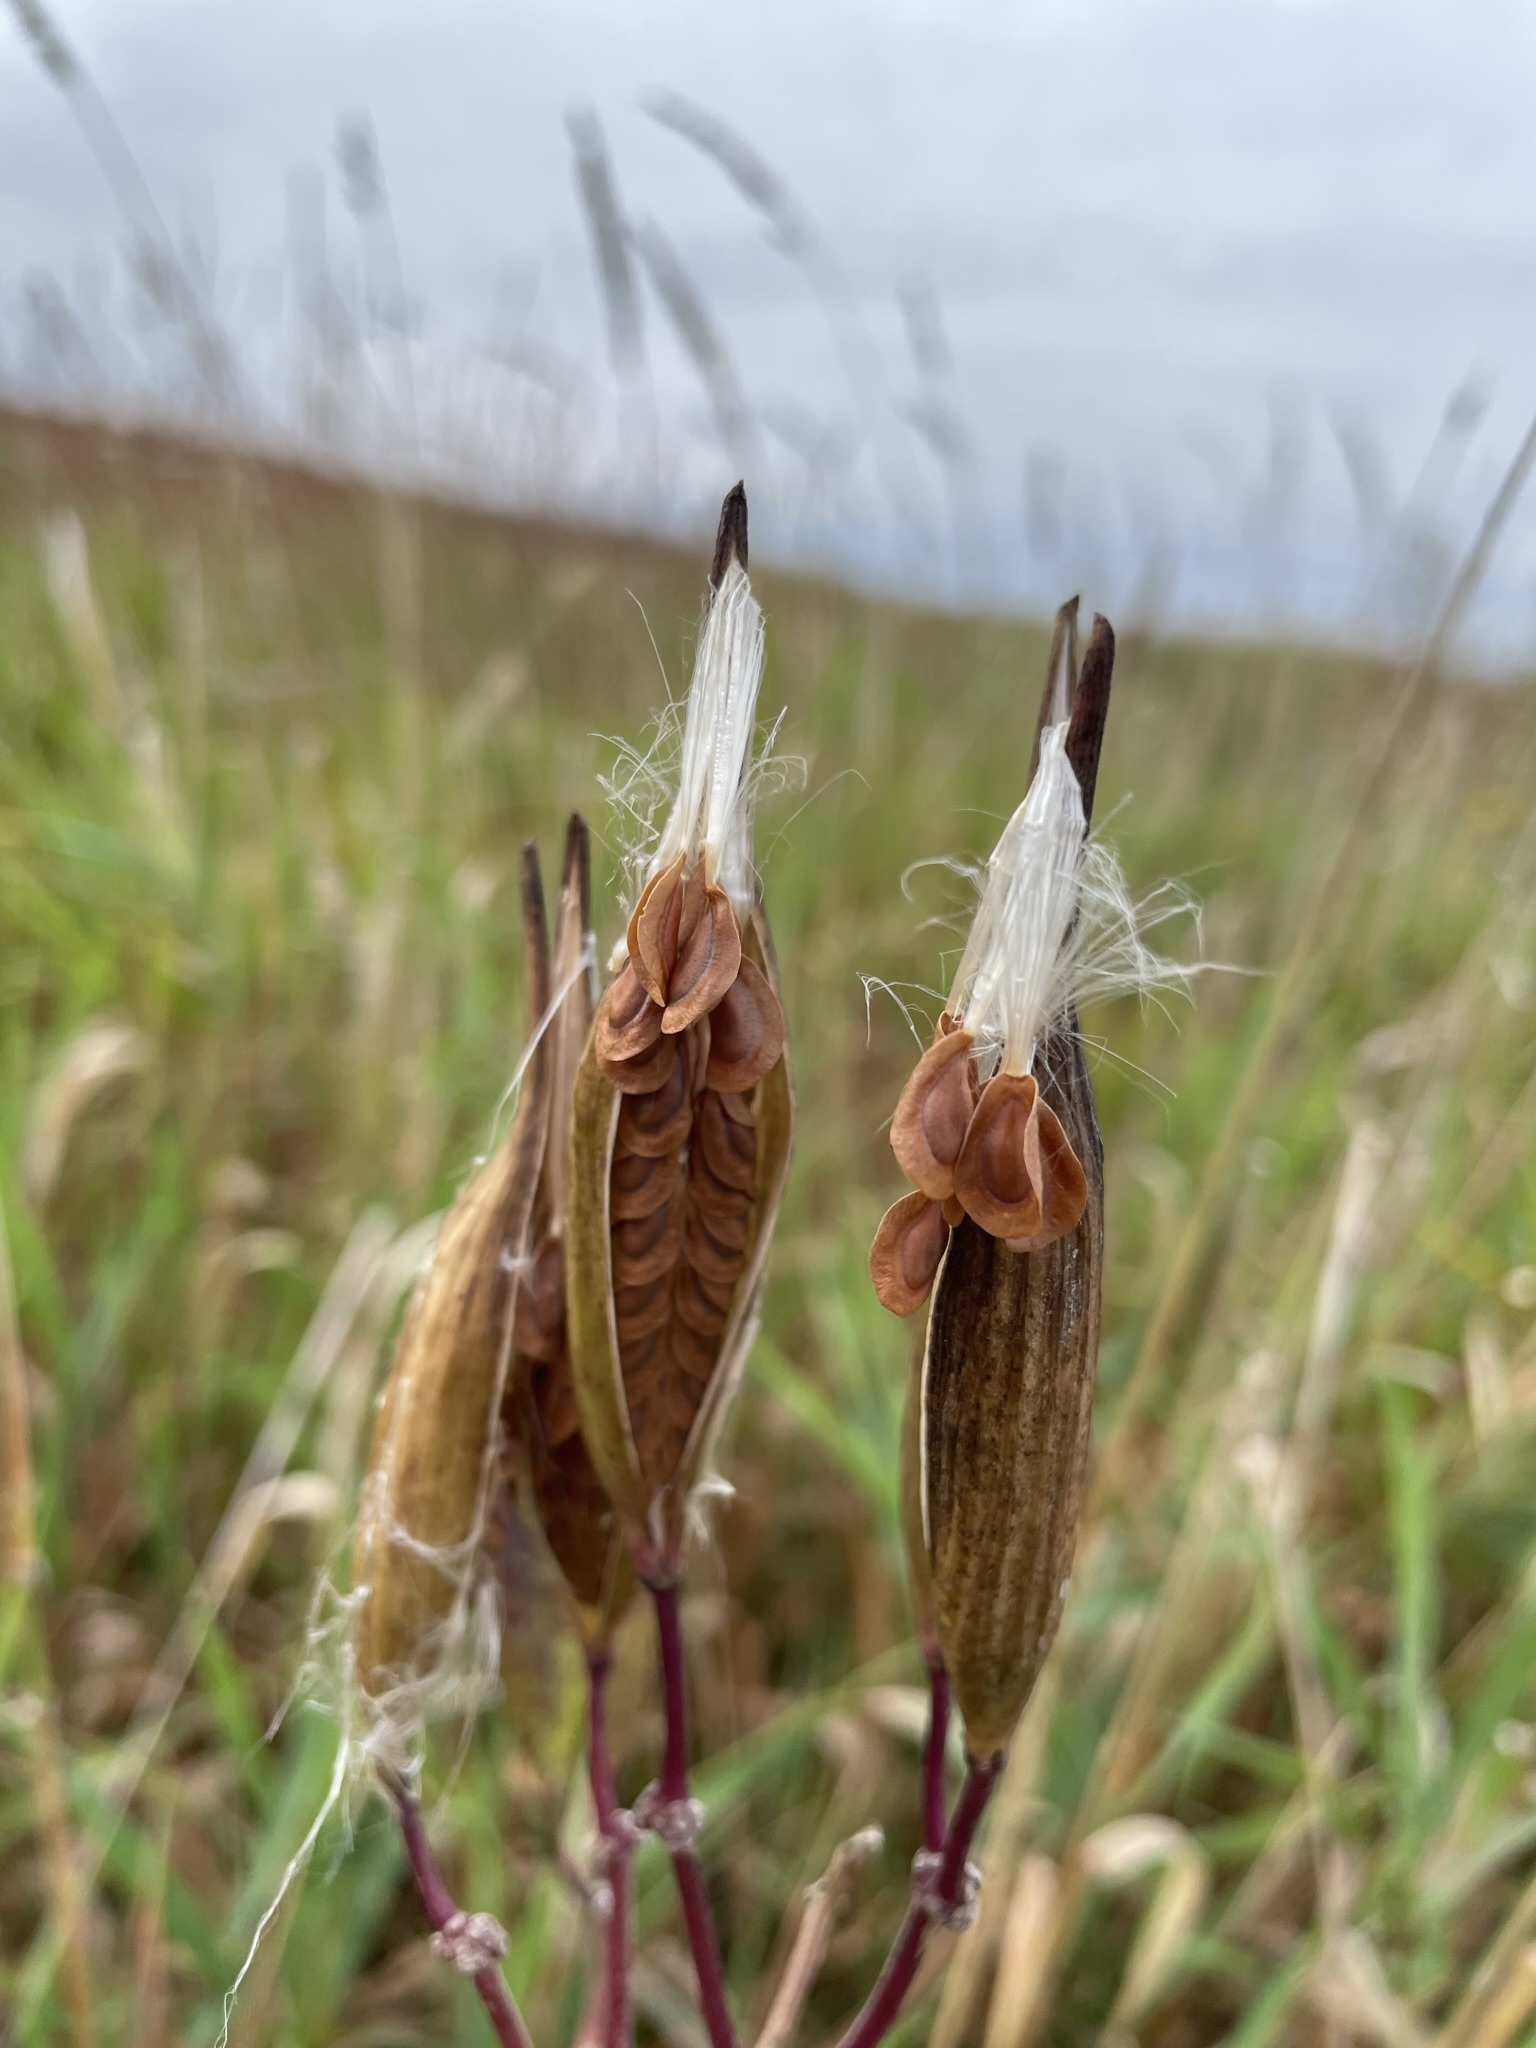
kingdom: Plantae
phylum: Tracheophyta
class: Magnoliopsida
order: Gentianales
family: Apocynaceae
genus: Asclepias
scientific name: Asclepias incarnata
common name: Swamp milkweed
